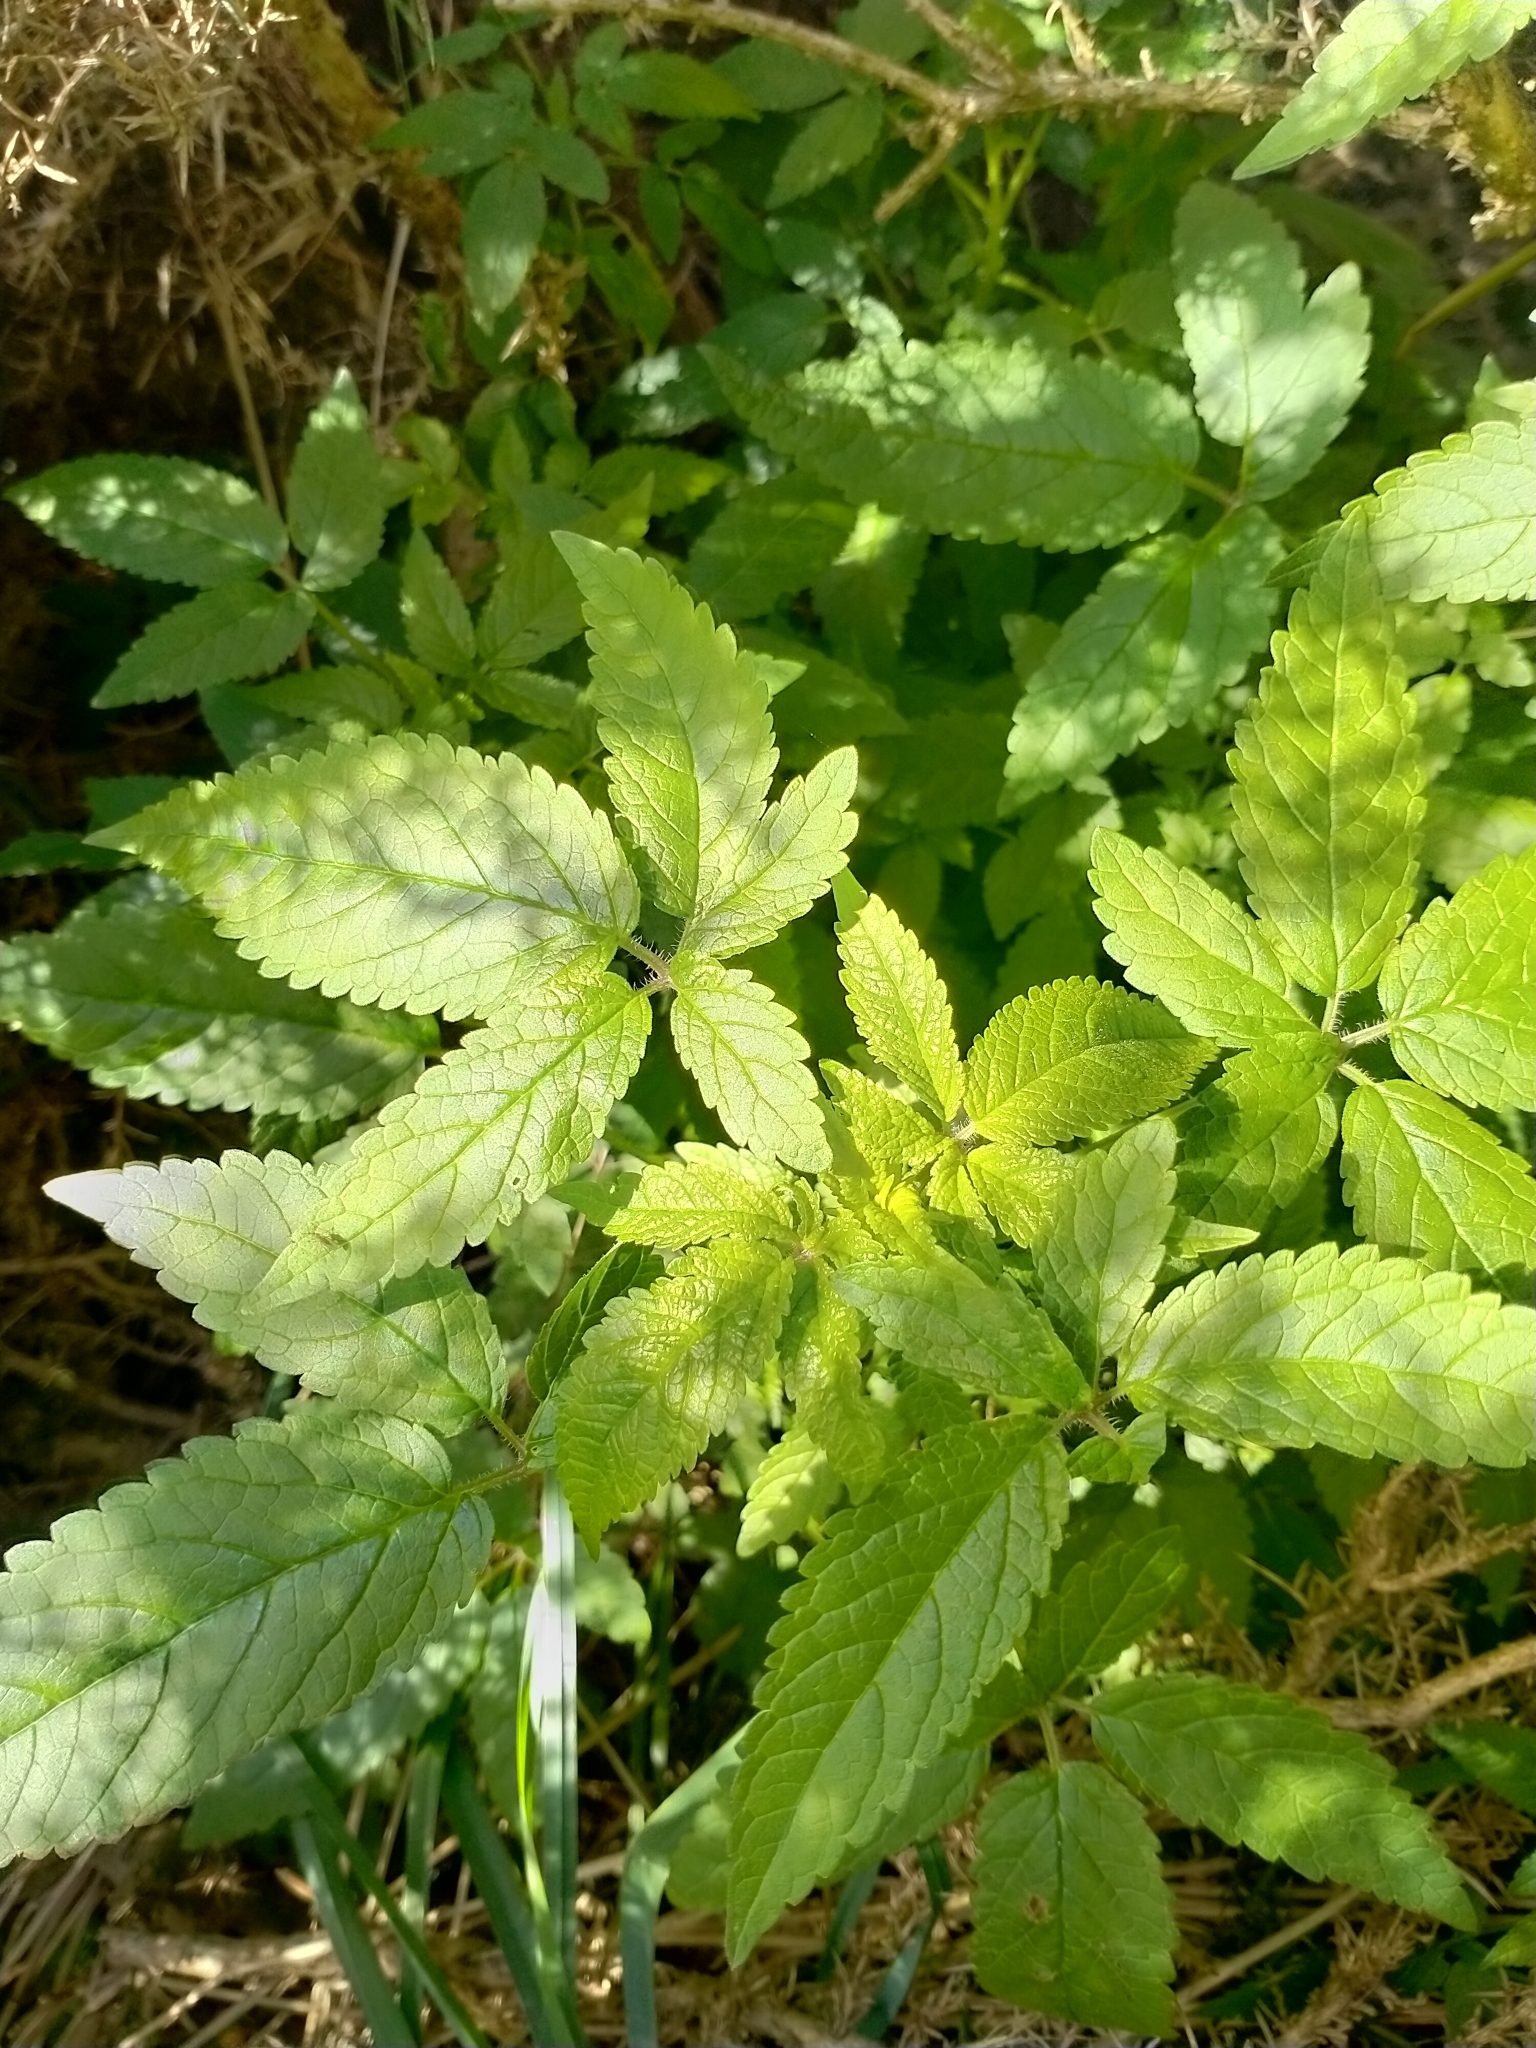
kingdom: Plantae
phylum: Tracheophyta
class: Magnoliopsida
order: Lamiales
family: Lamiaceae
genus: Cedronella
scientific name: Cedronella canariensis
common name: Canary islands balm
